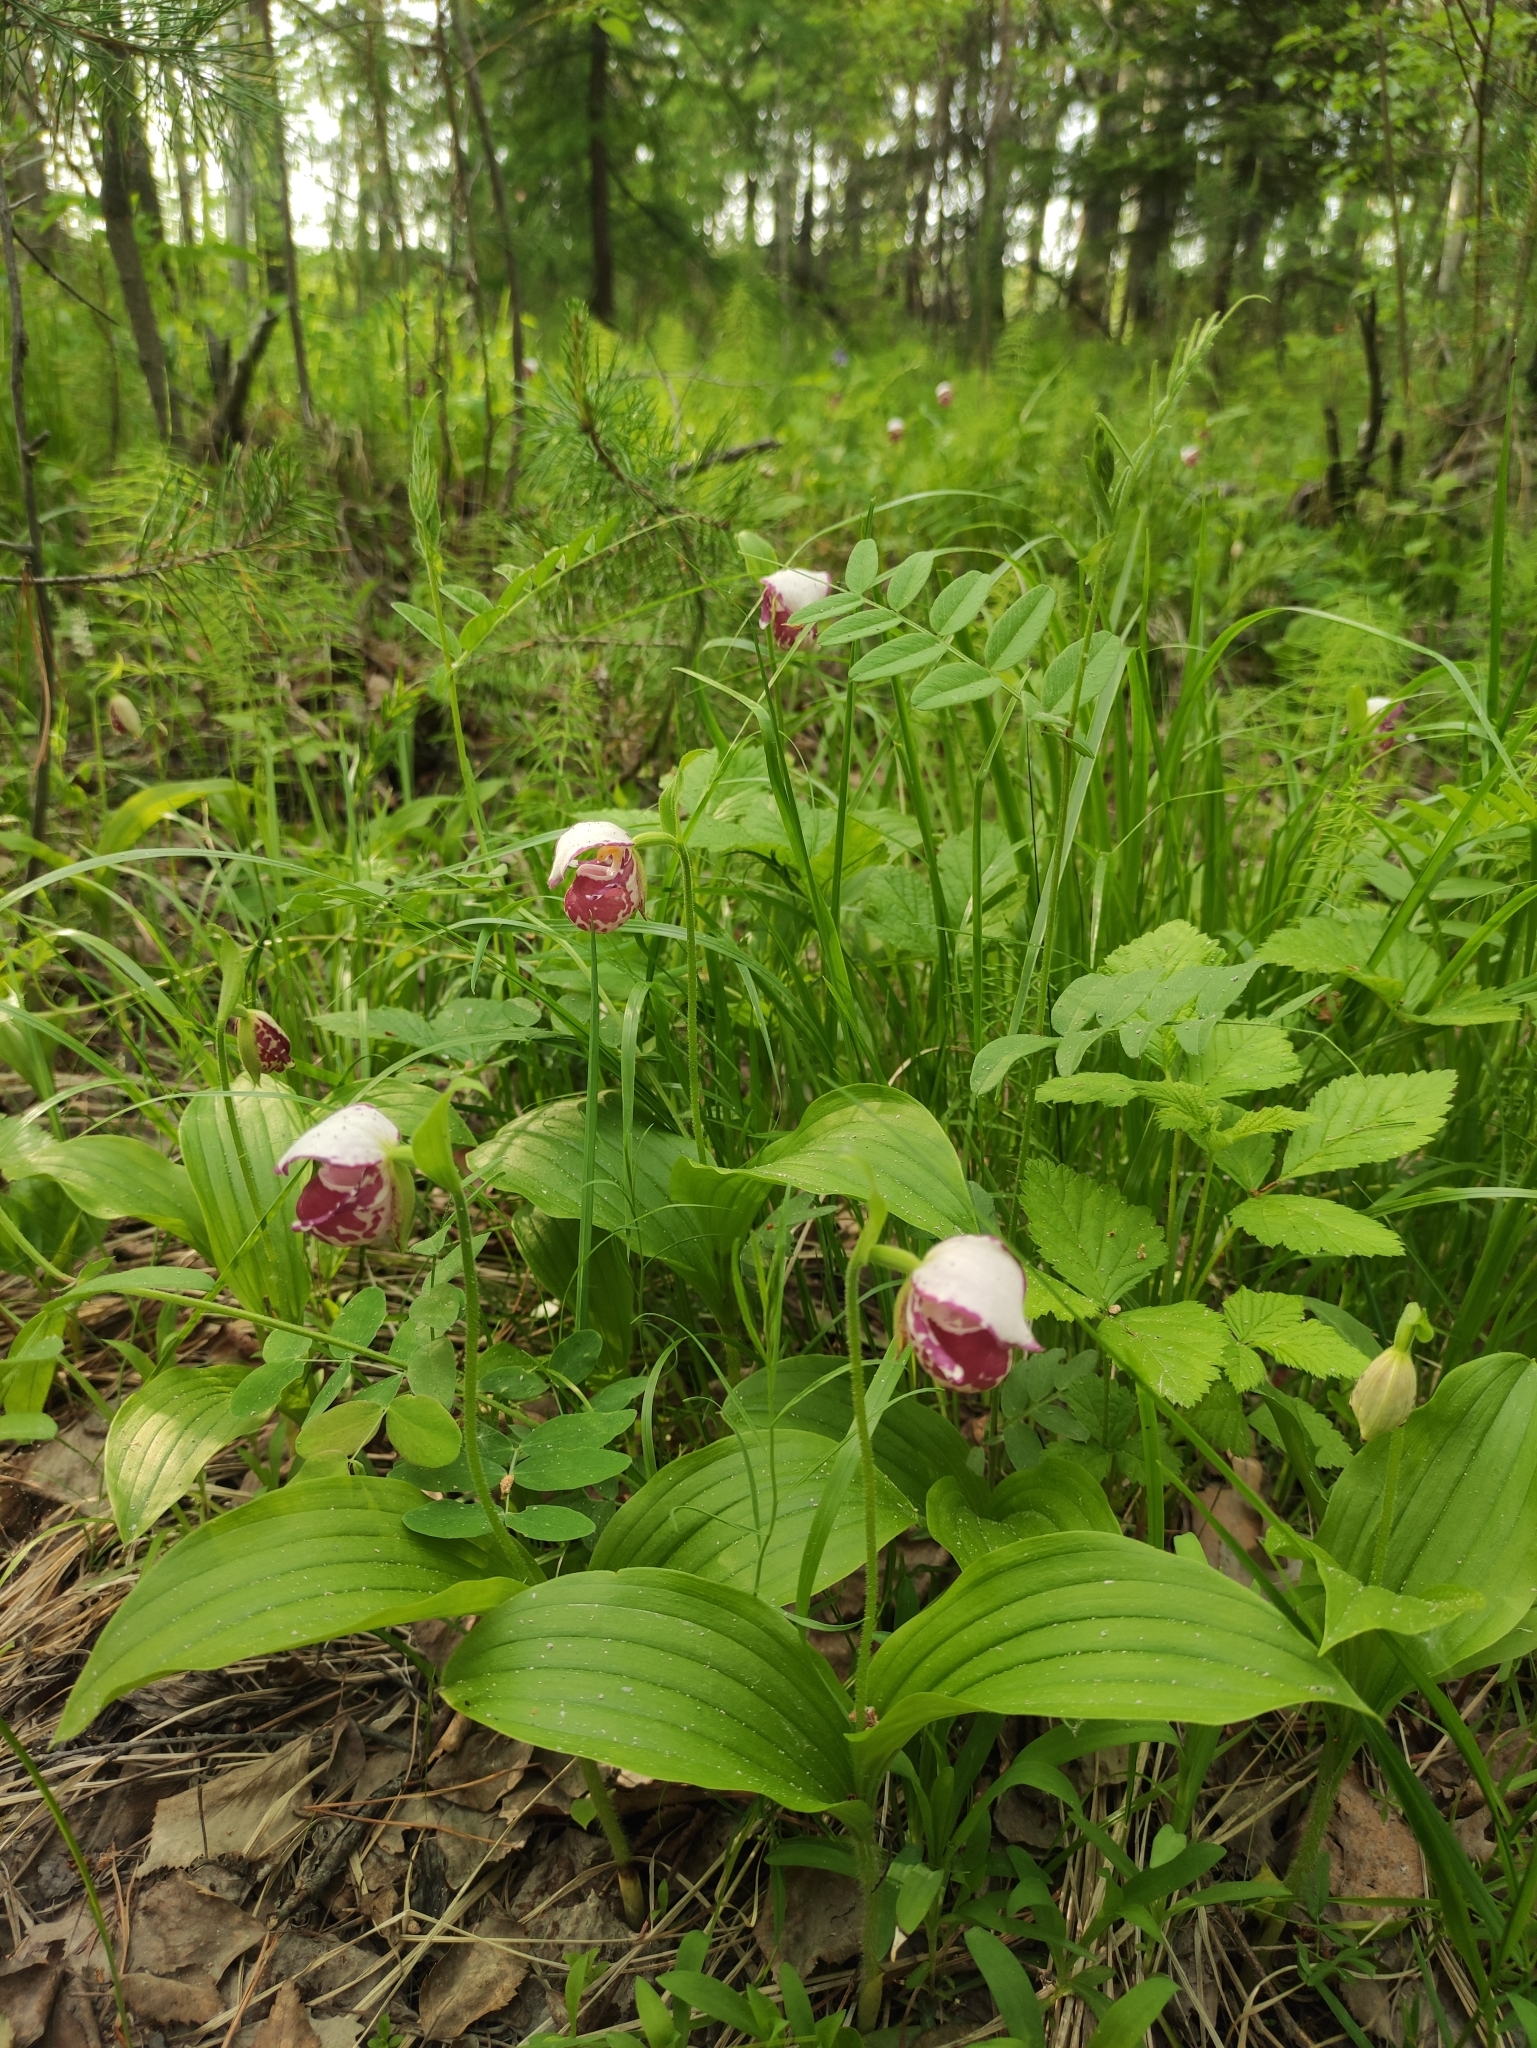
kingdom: Plantae
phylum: Tracheophyta
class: Liliopsida
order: Asparagales
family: Orchidaceae
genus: Cypripedium
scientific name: Cypripedium guttatum
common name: Pink lady slipper
